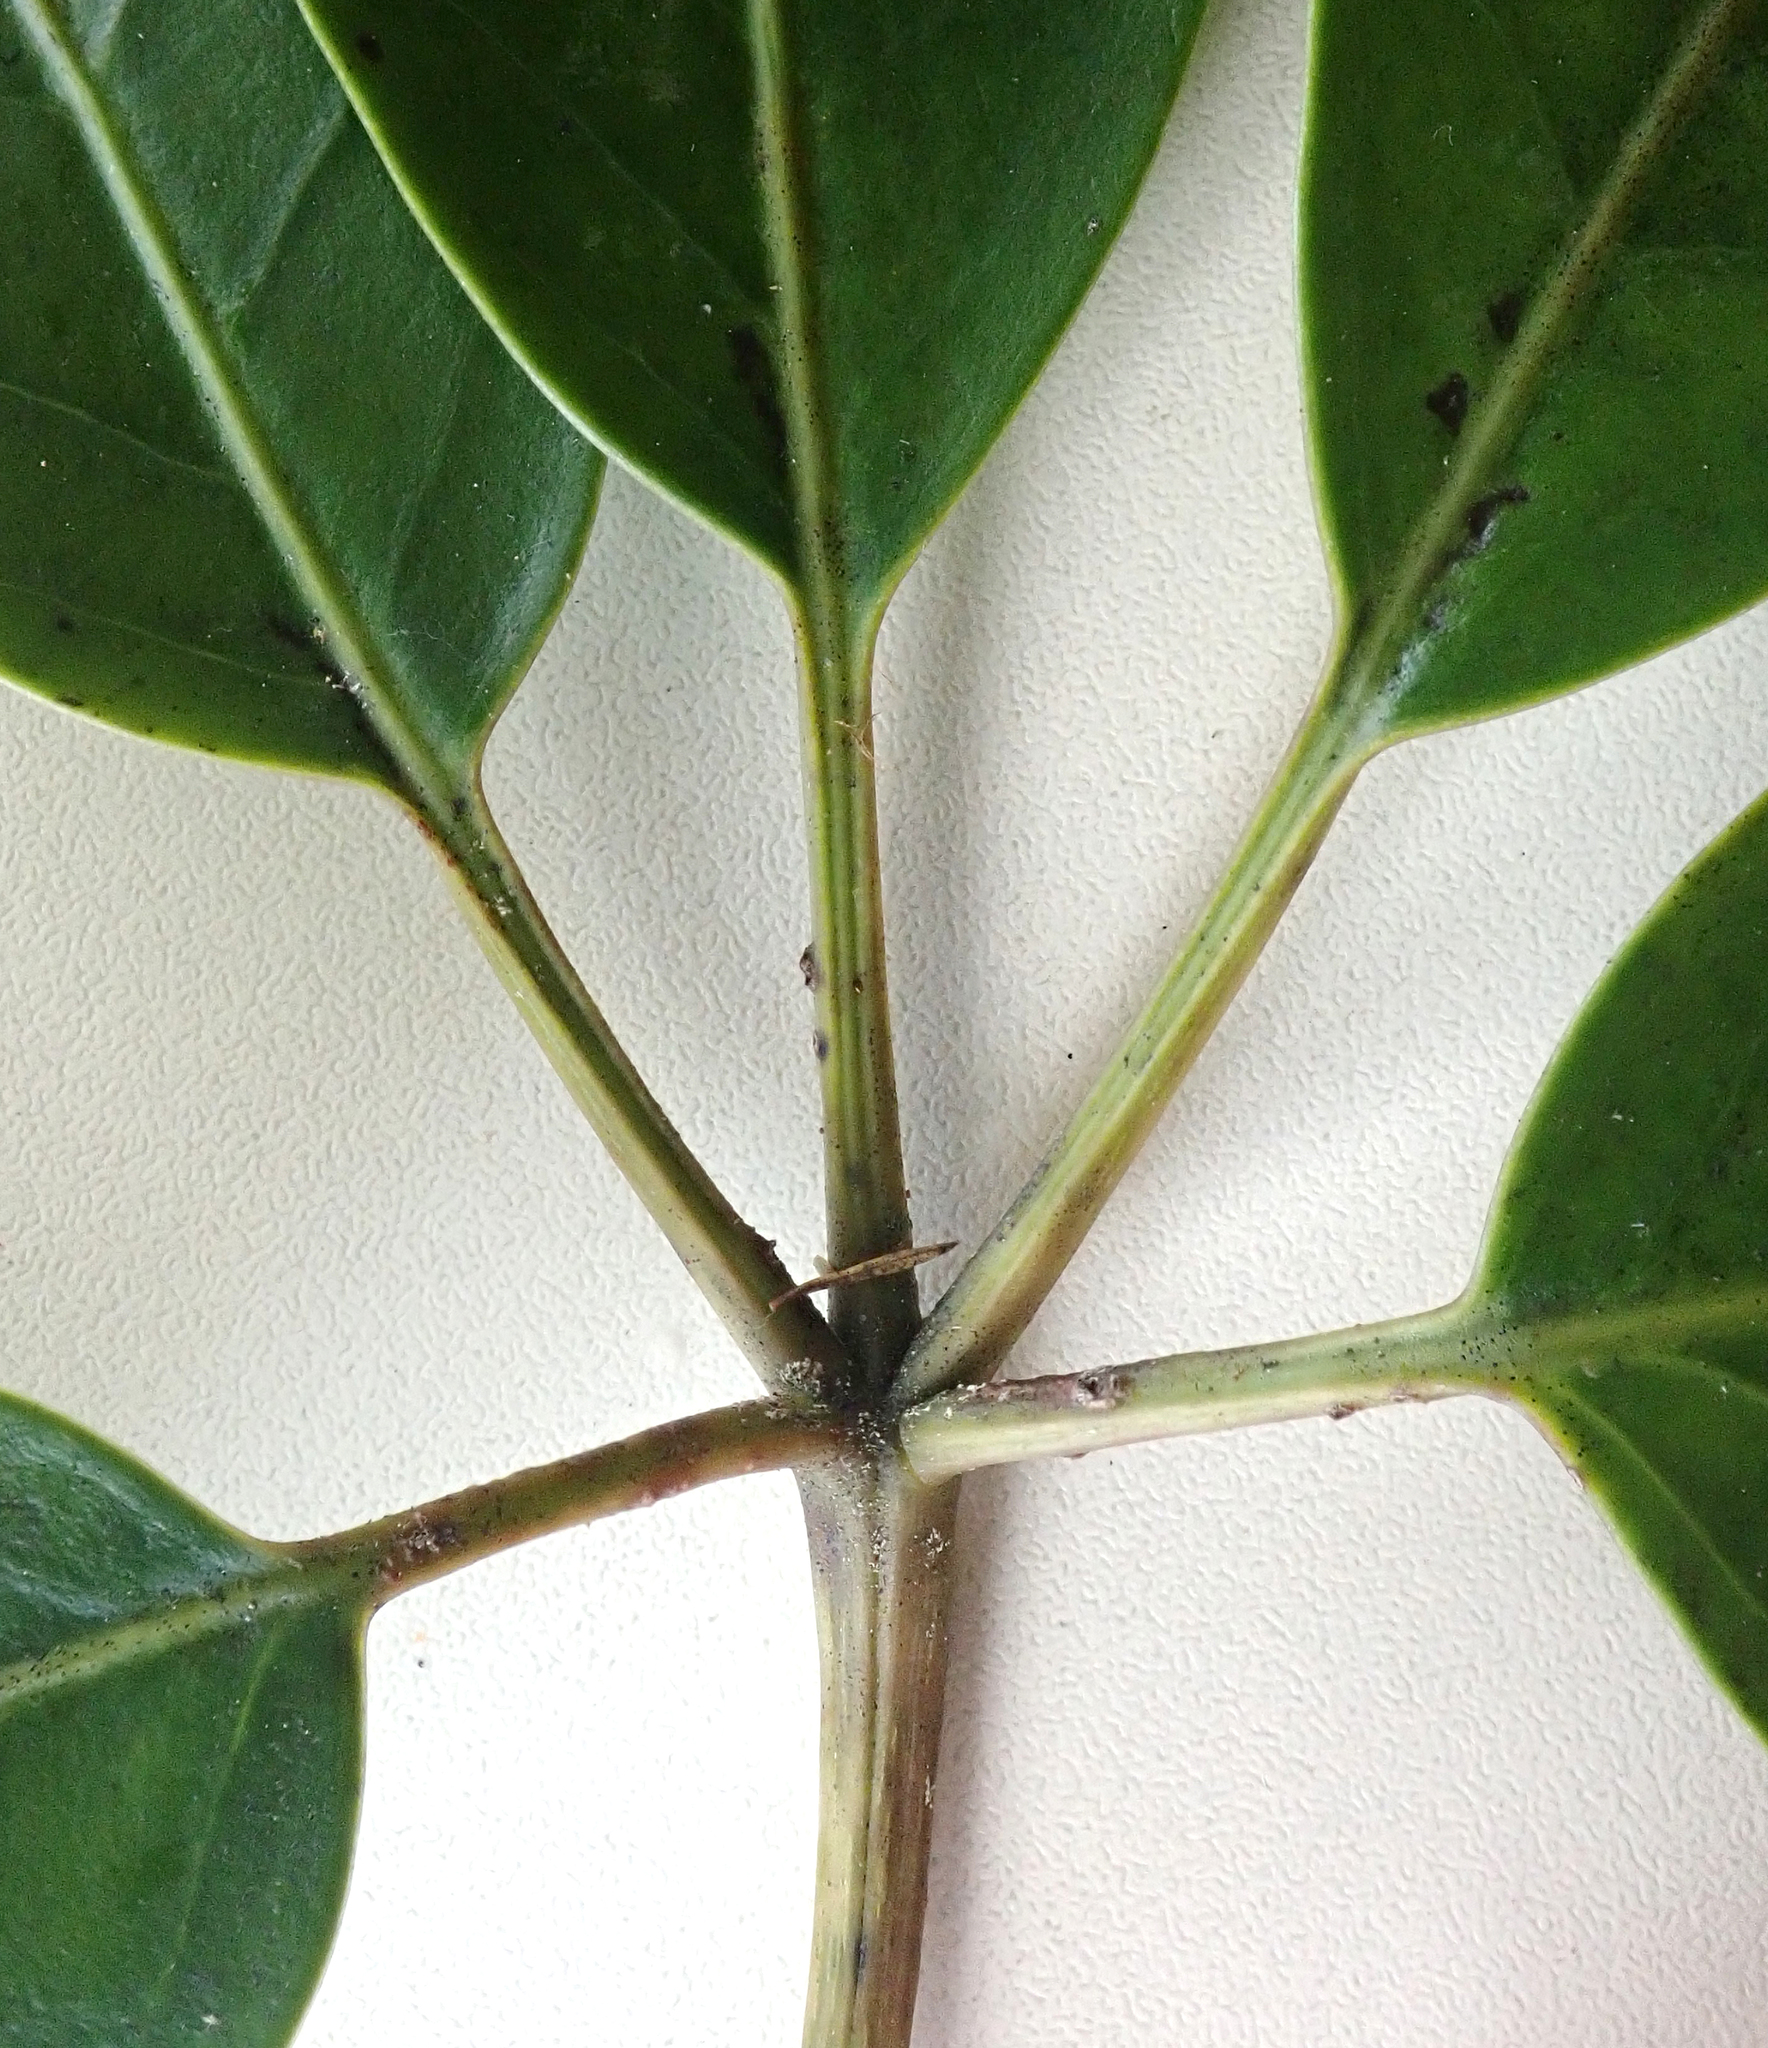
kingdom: Plantae
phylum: Tracheophyta
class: Magnoliopsida
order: Apiales
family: Araliaceae
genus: Neopanax
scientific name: Neopanax arboreus
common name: Five-fingers
